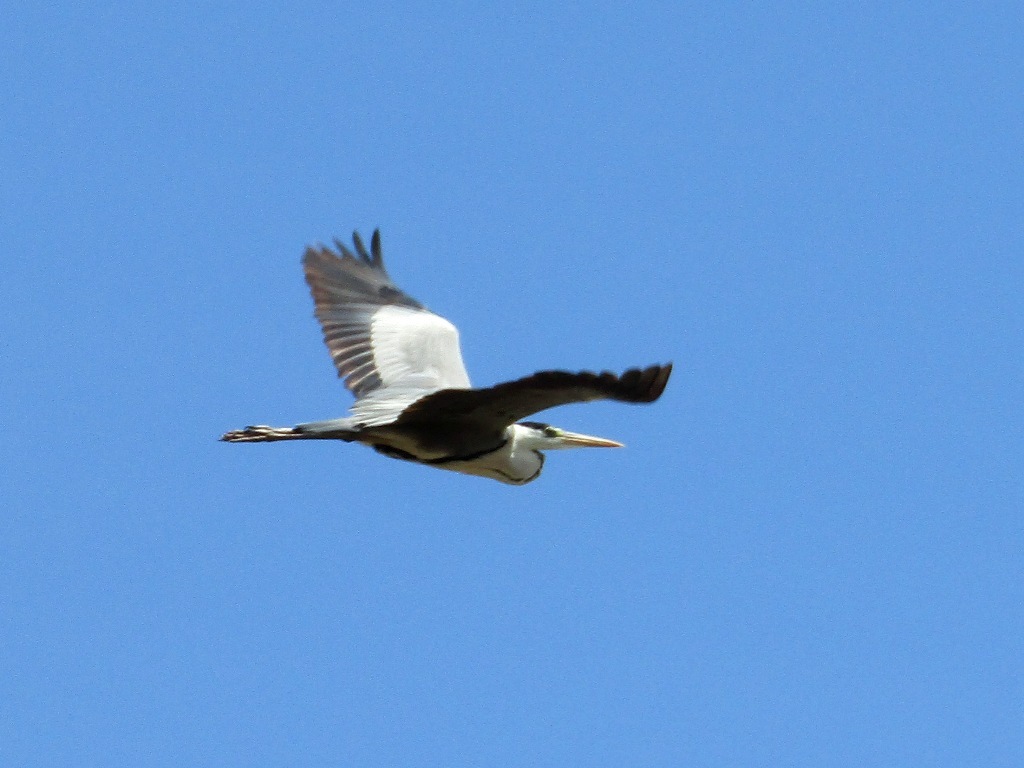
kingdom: Animalia
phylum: Chordata
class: Aves
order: Pelecaniformes
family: Ardeidae
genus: Ardea
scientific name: Ardea cinerea
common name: Grey heron
